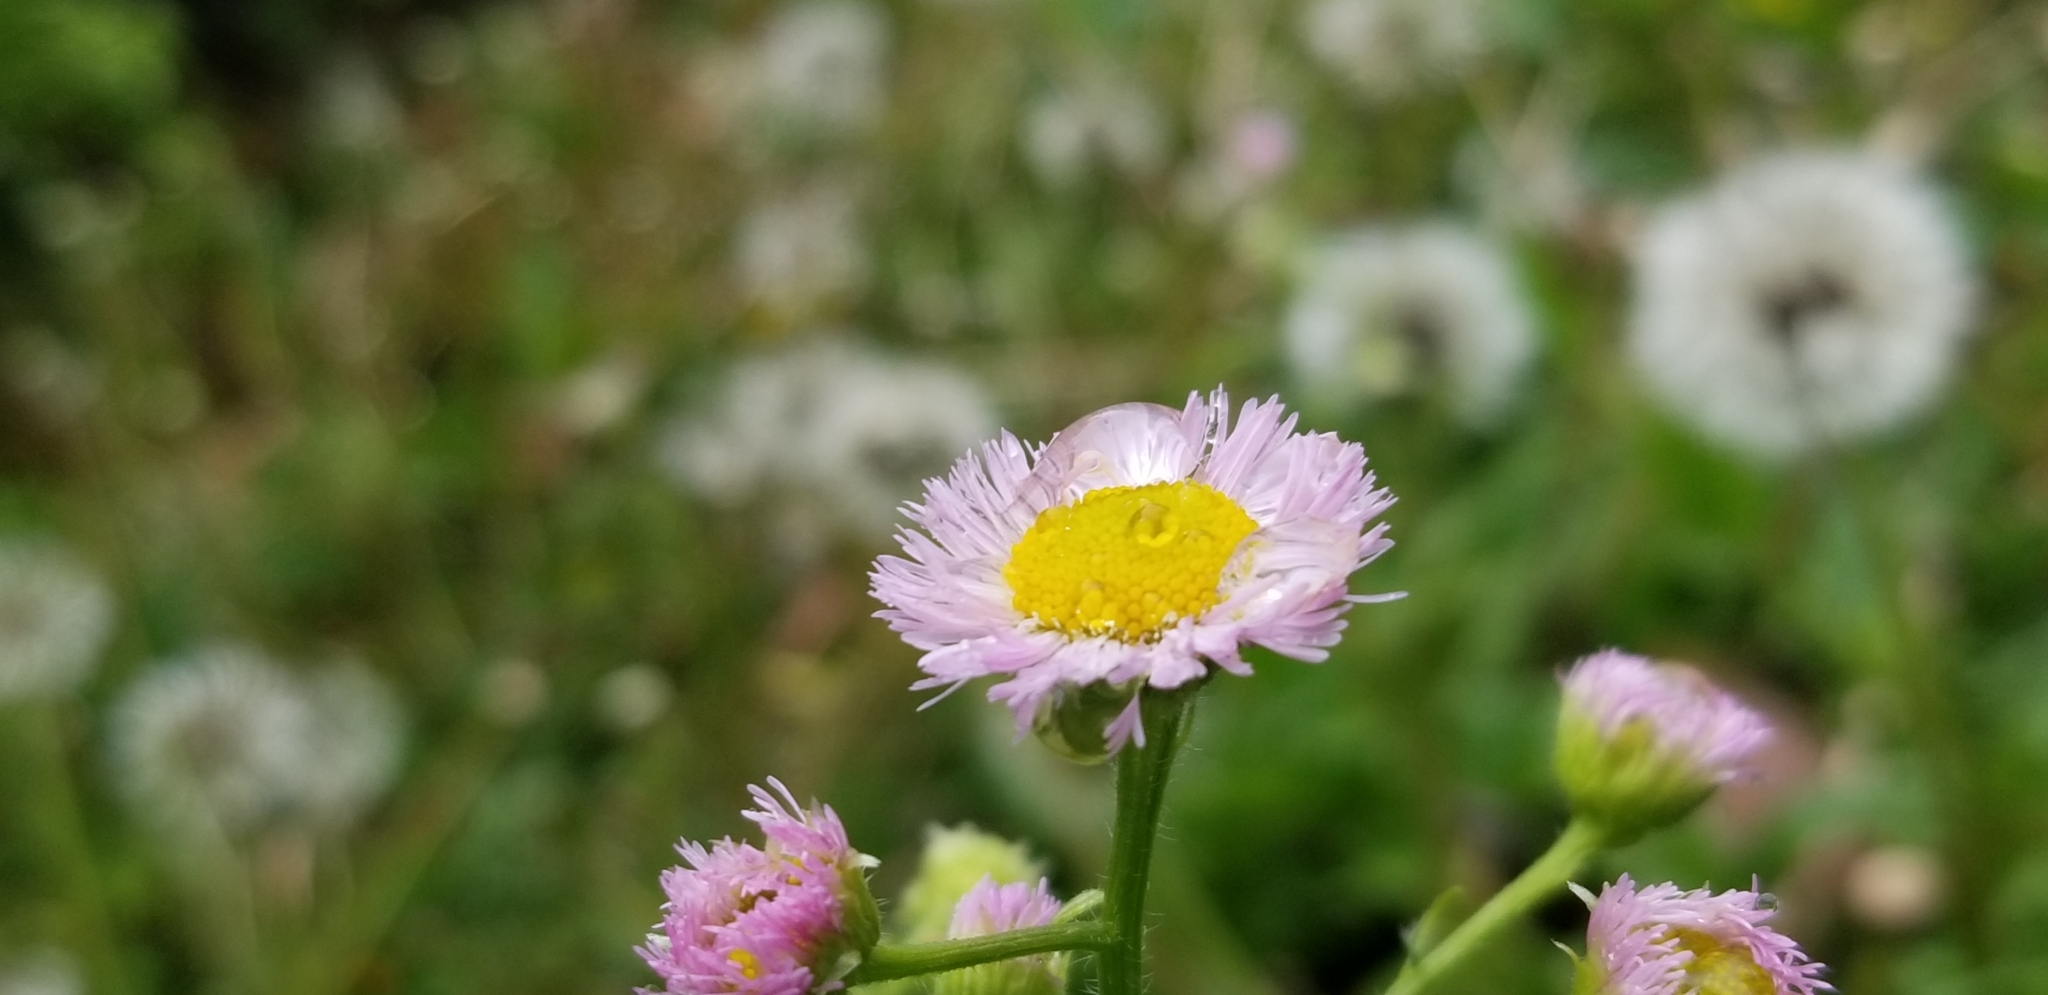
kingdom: Plantae
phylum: Tracheophyta
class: Magnoliopsida
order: Asterales
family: Asteraceae
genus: Erigeron
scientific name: Erigeron philadelphicus
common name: Robin's-plantain
